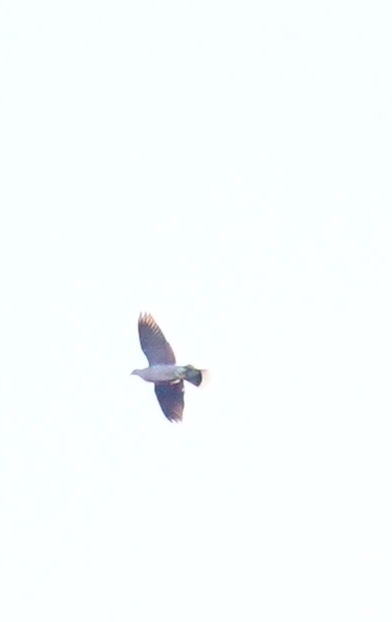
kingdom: Animalia
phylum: Chordata
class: Aves
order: Columbiformes
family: Columbidae
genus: Patagioenas
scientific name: Patagioenas fasciata
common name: Band-tailed pigeon
